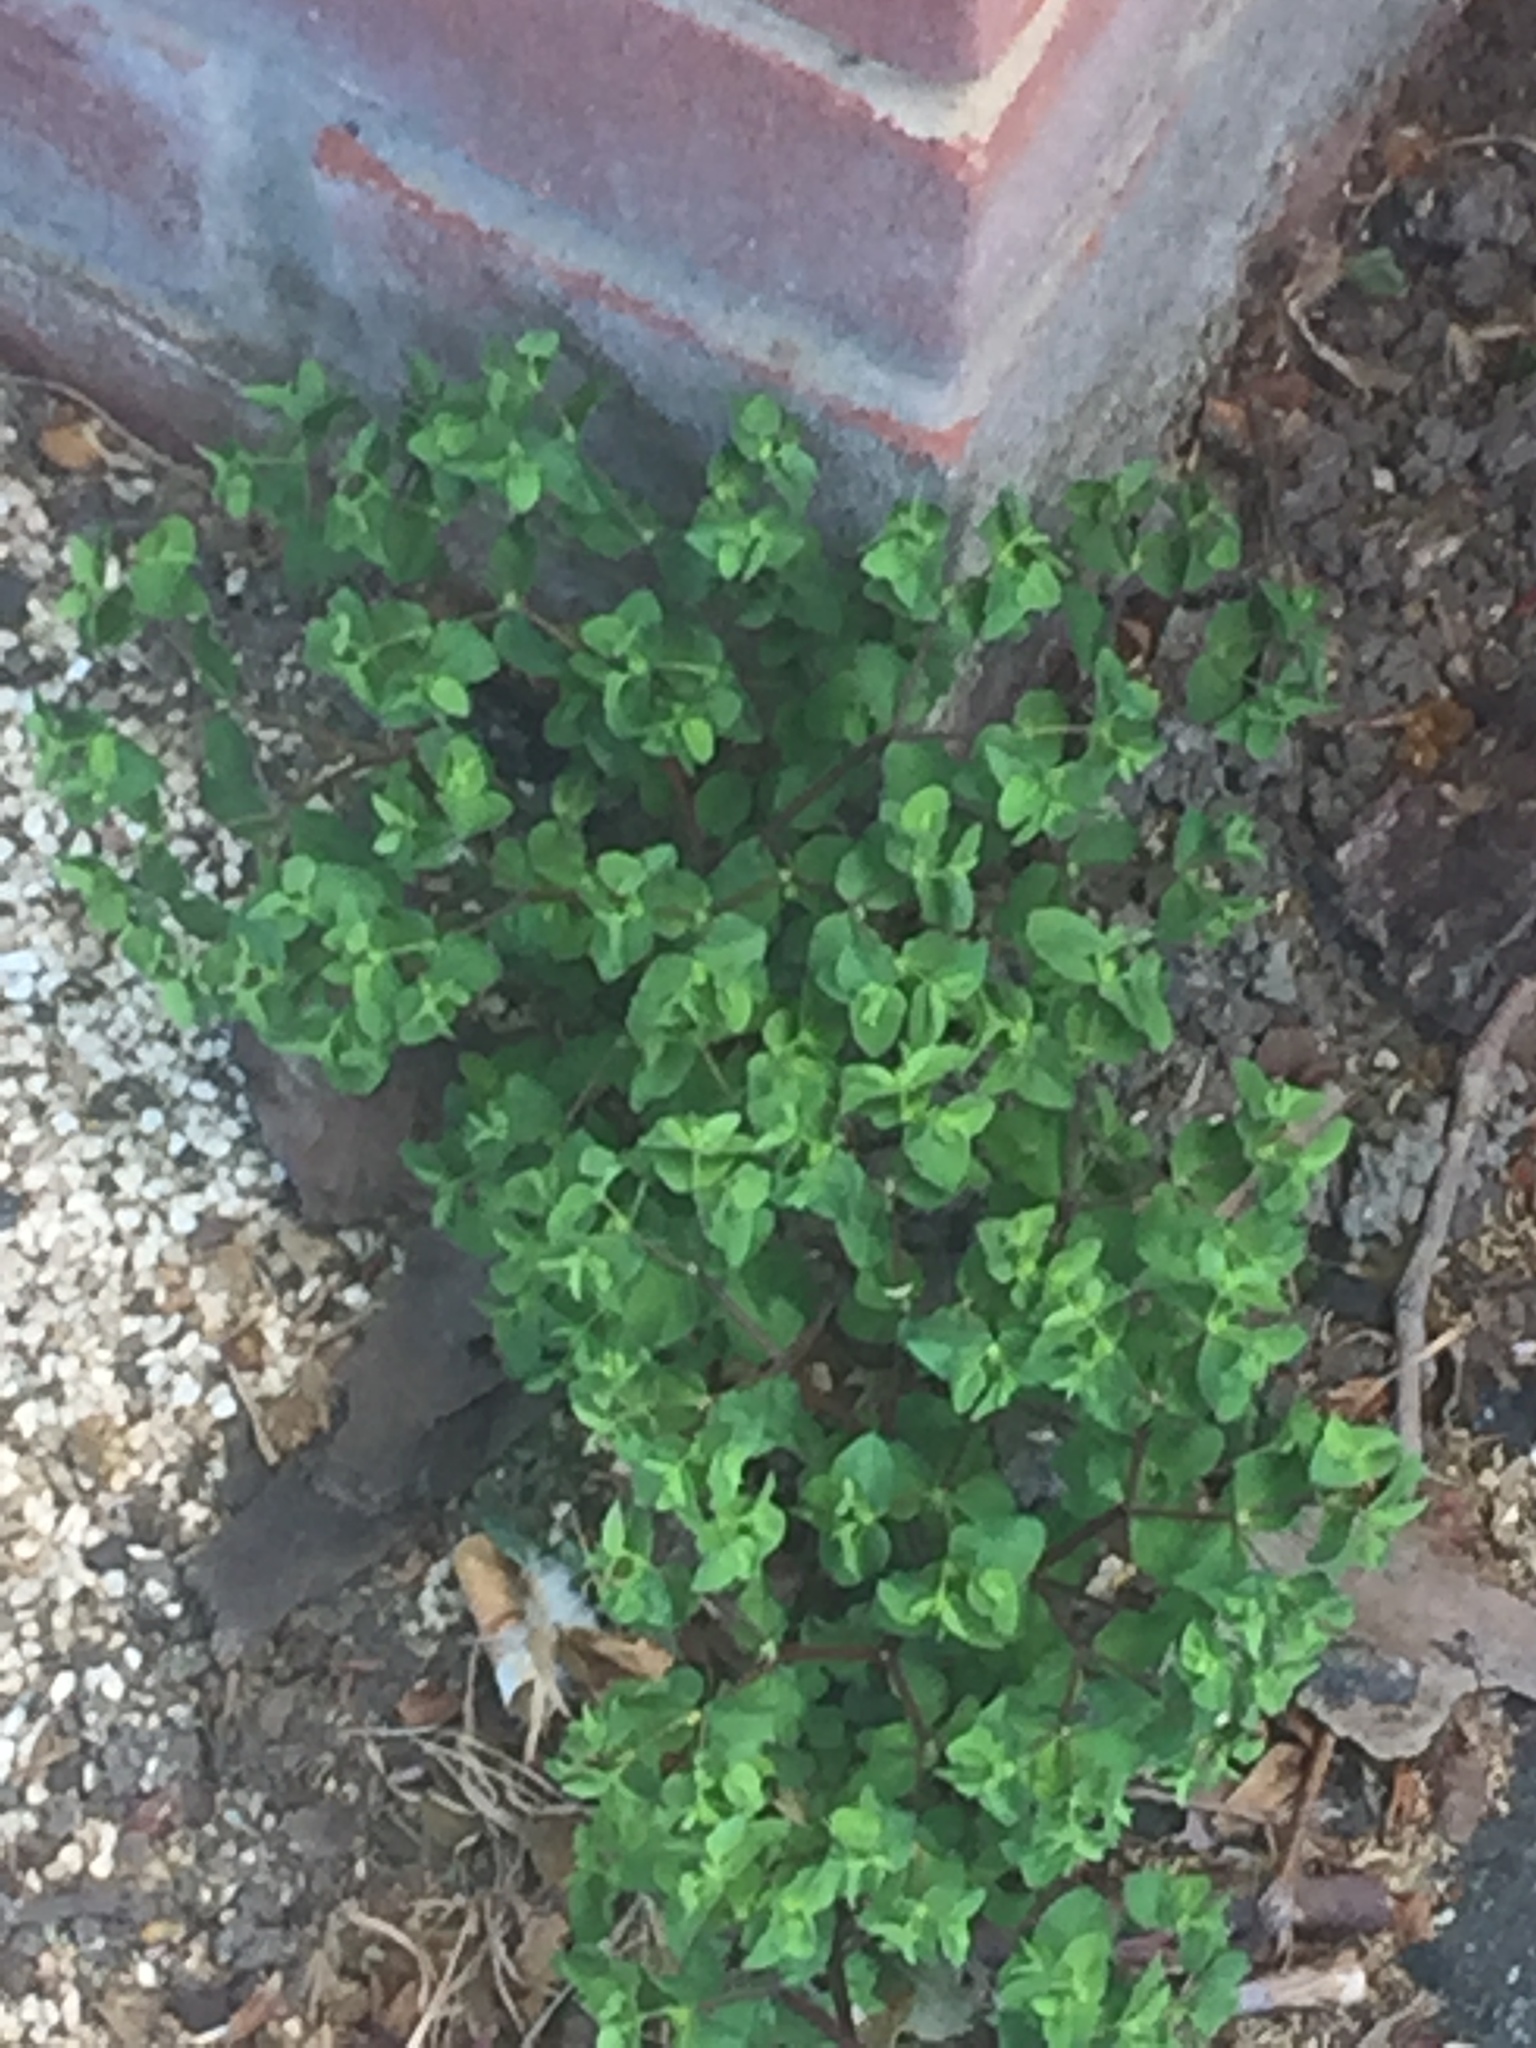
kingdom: Plantae
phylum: Tracheophyta
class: Magnoliopsida
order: Malpighiales
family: Euphorbiaceae
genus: Euphorbia
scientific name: Euphorbia peplus
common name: Petty spurge
